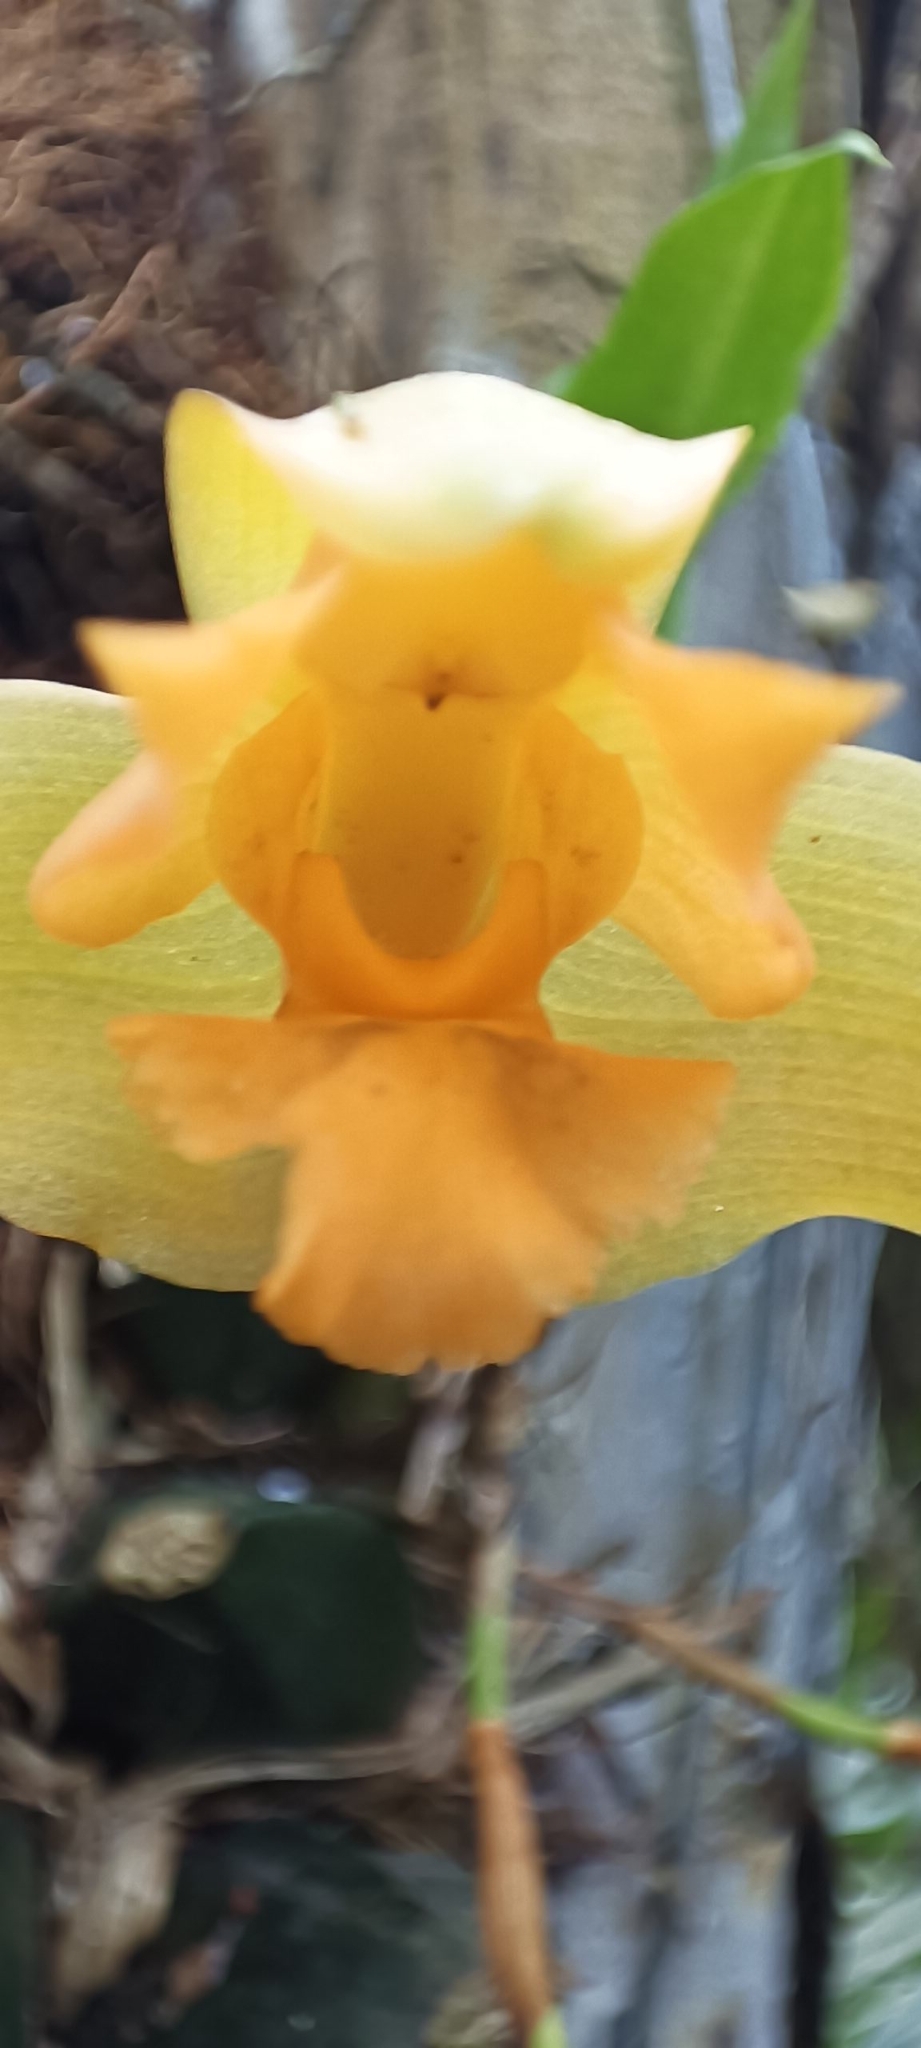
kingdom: Plantae
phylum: Tracheophyta
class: Liliopsida
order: Asparagales
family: Orchidaceae
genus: Lycaste
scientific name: Lycaste aromatica
